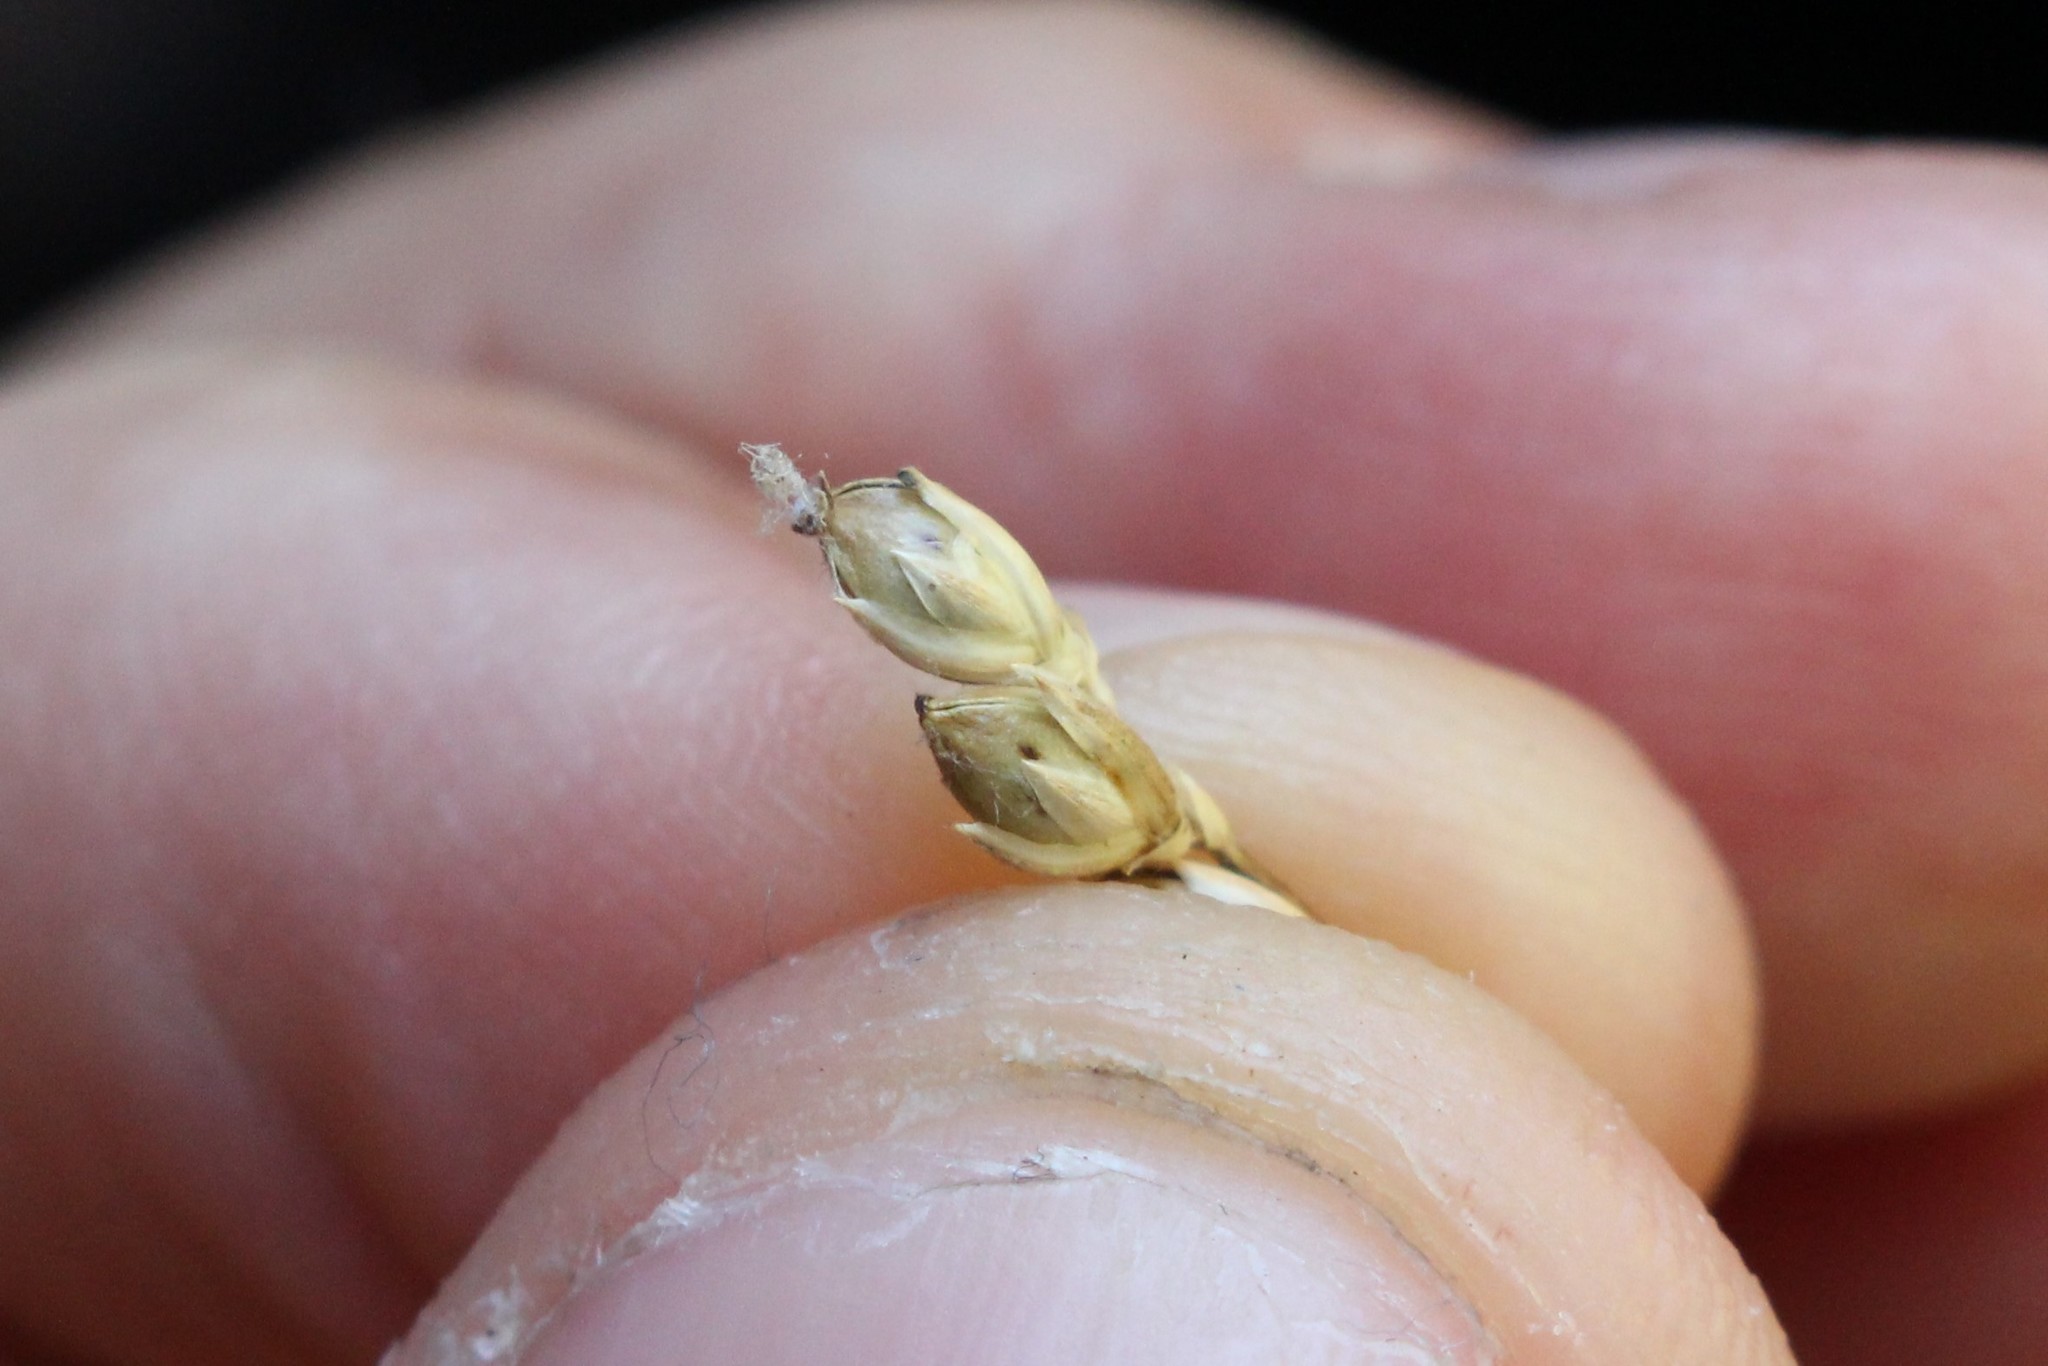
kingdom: Plantae
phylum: Tracheophyta
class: Liliopsida
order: Poales
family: Juncaceae
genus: Juncus
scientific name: Juncus pallidus
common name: Great soft-rush
